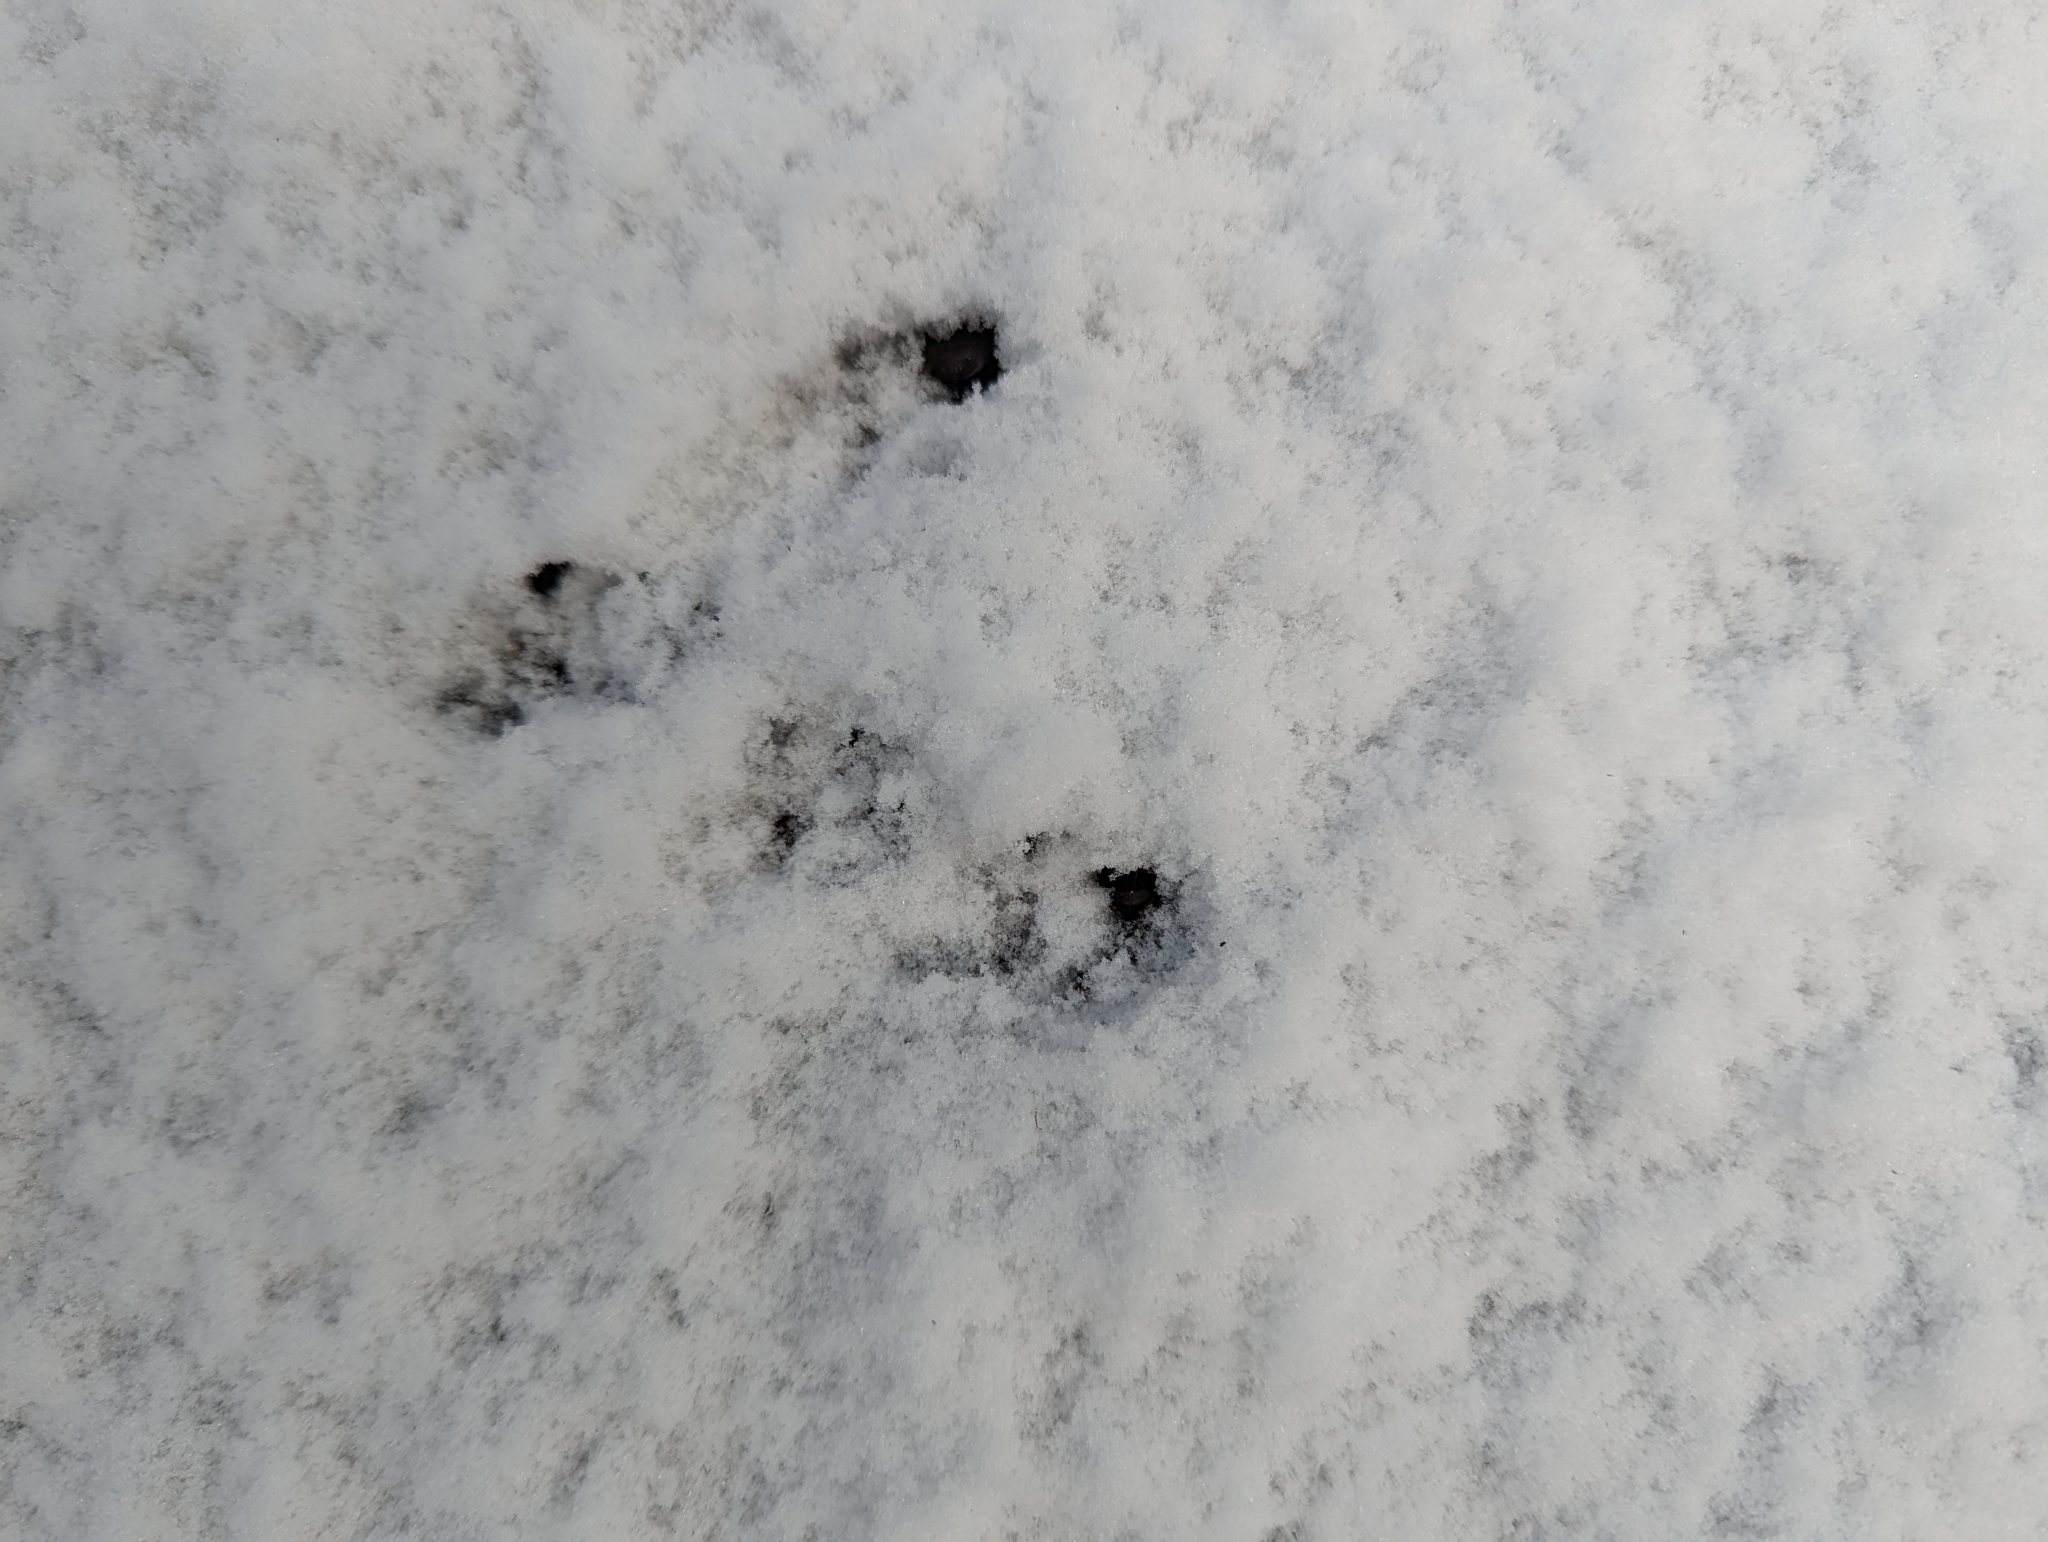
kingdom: Animalia
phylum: Chordata
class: Mammalia
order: Rodentia
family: Sciuridae
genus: Tamiasciurus
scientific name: Tamiasciurus hudsonicus
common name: Red squirrel
